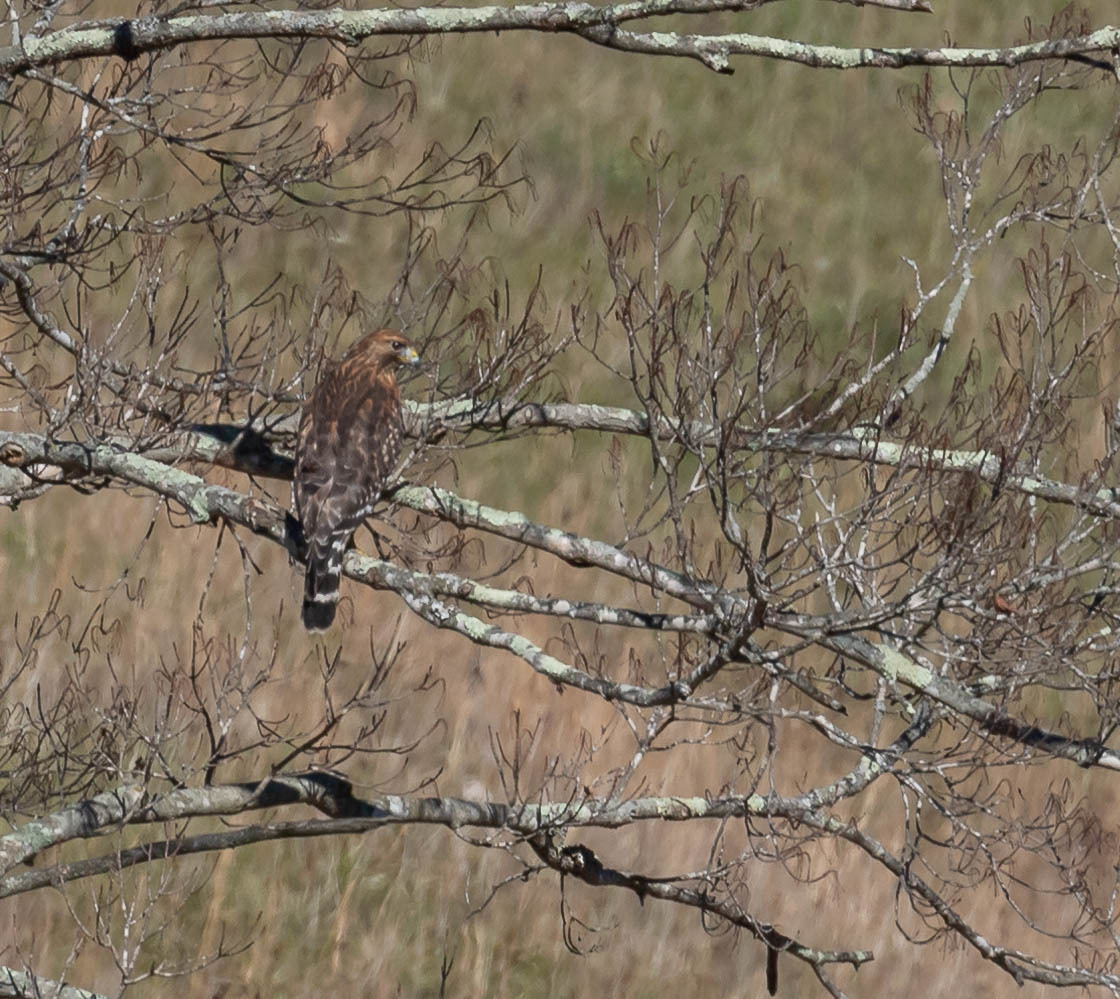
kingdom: Animalia
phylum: Chordata
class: Aves
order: Accipitriformes
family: Accipitridae
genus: Buteo
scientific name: Buteo lineatus
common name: Red-shouldered hawk
